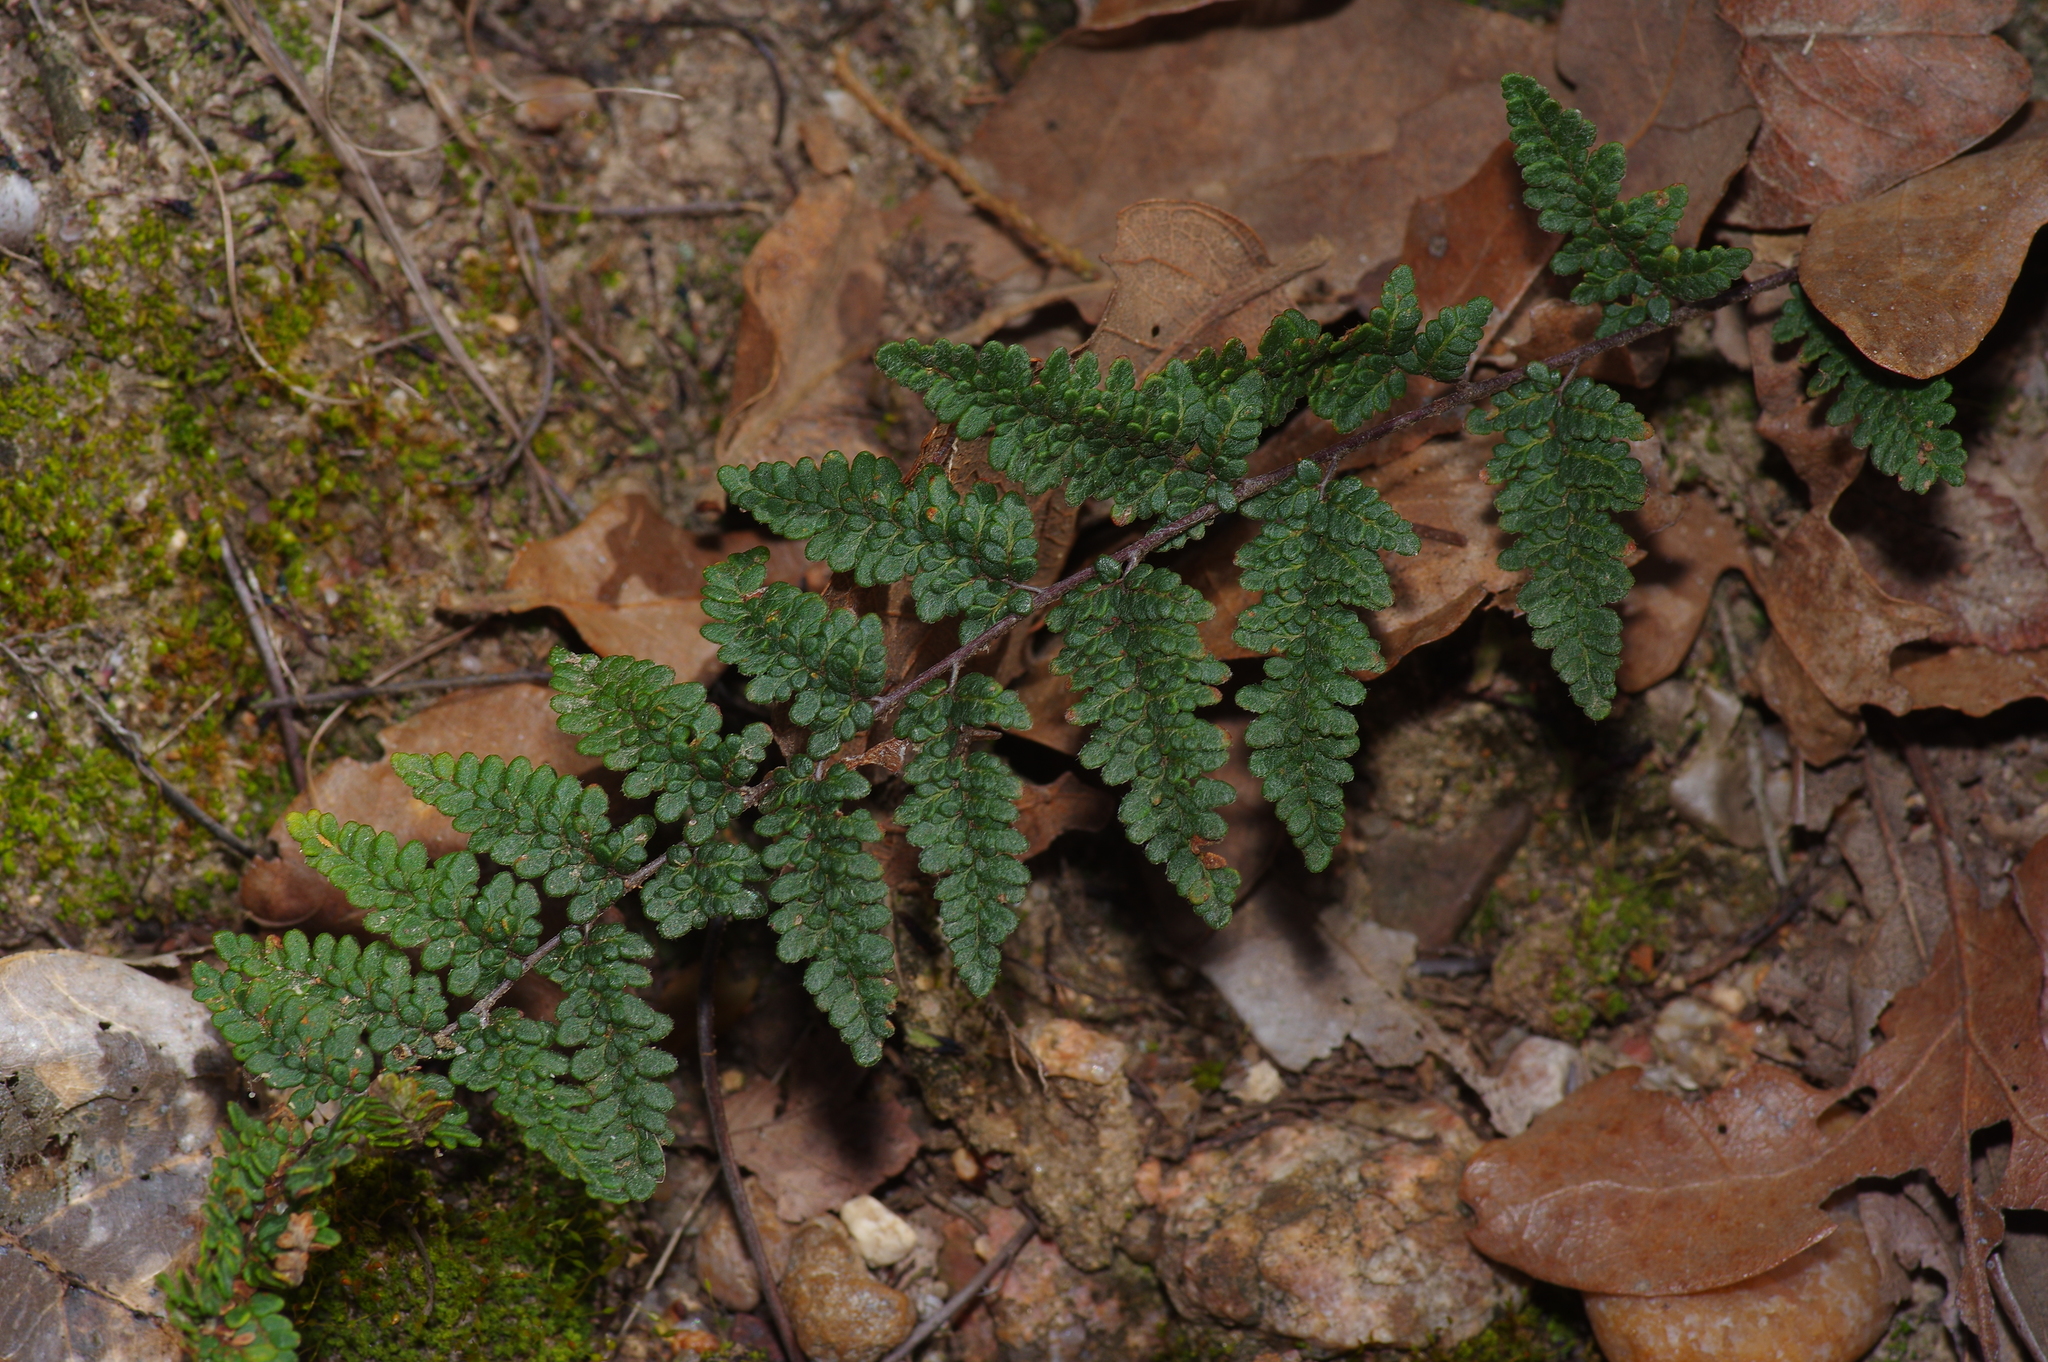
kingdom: Plantae
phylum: Tracheophyta
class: Polypodiopsida
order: Polypodiales
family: Pteridaceae
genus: Myriopteris
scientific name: Myriopteris tomentosa
